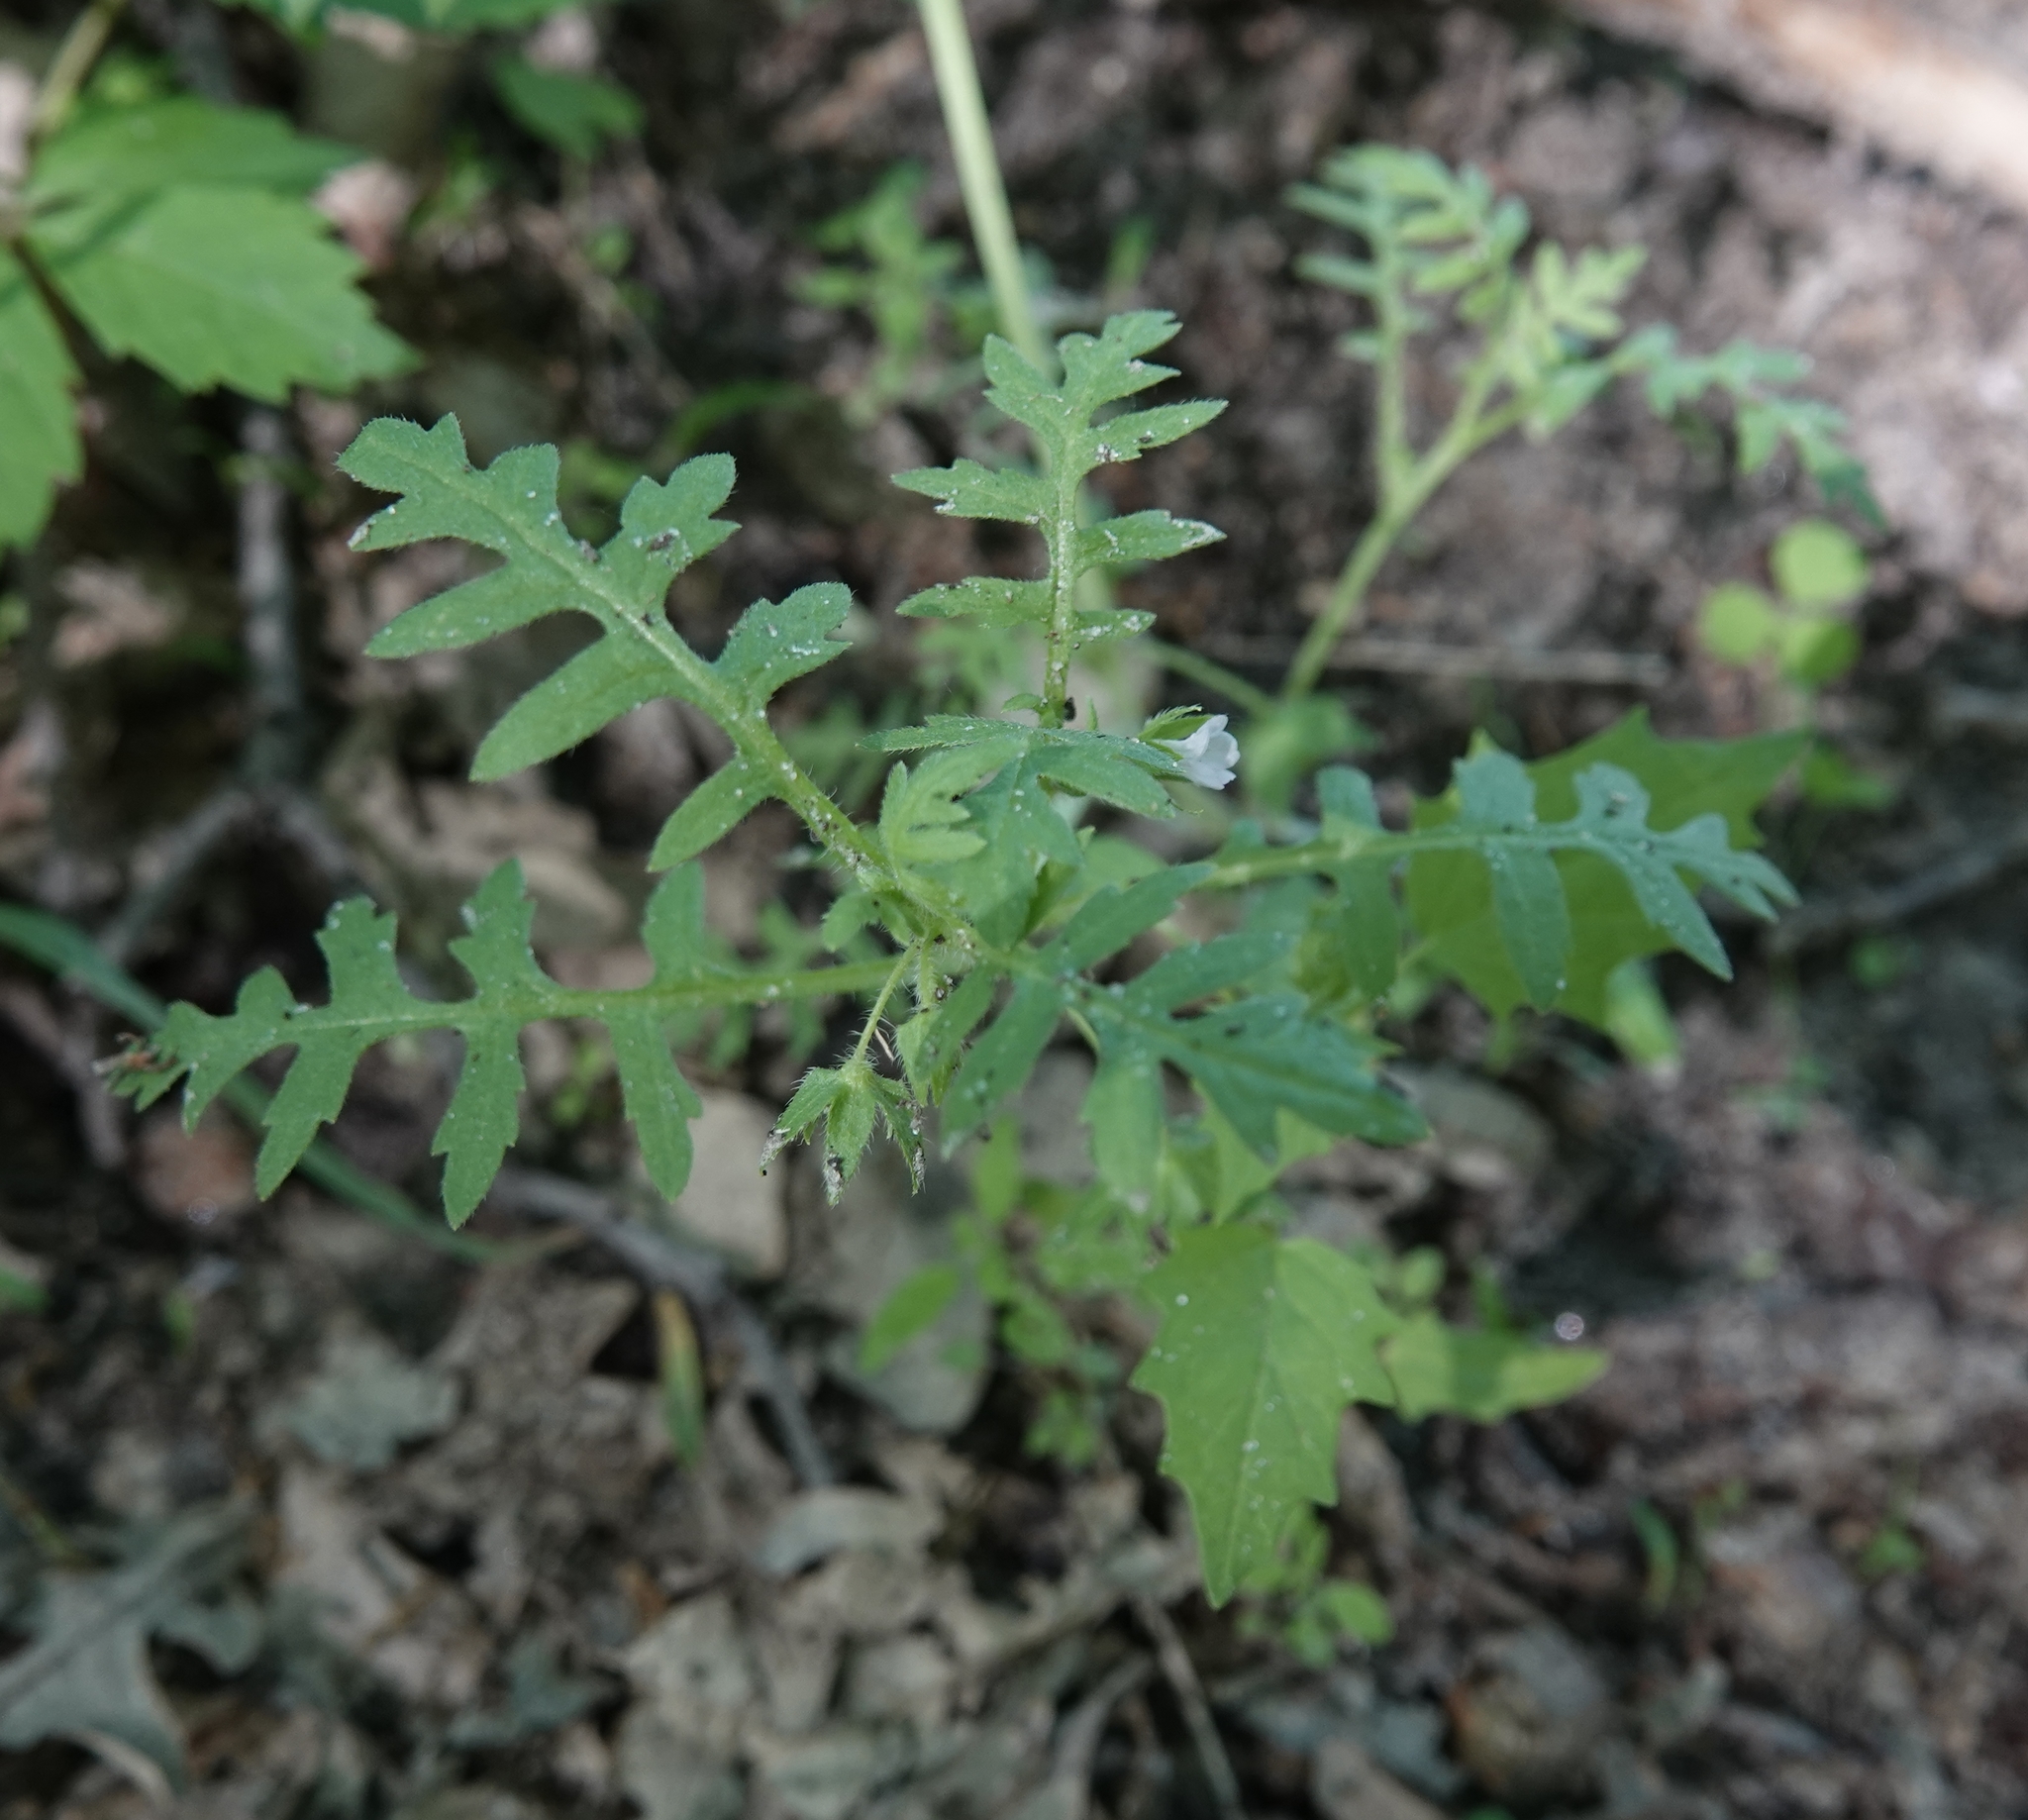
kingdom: Plantae
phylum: Tracheophyta
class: Magnoliopsida
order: Boraginales
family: Hydrophyllaceae
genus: Ellisia
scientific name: Ellisia nyctelea
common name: Aunt lucy
